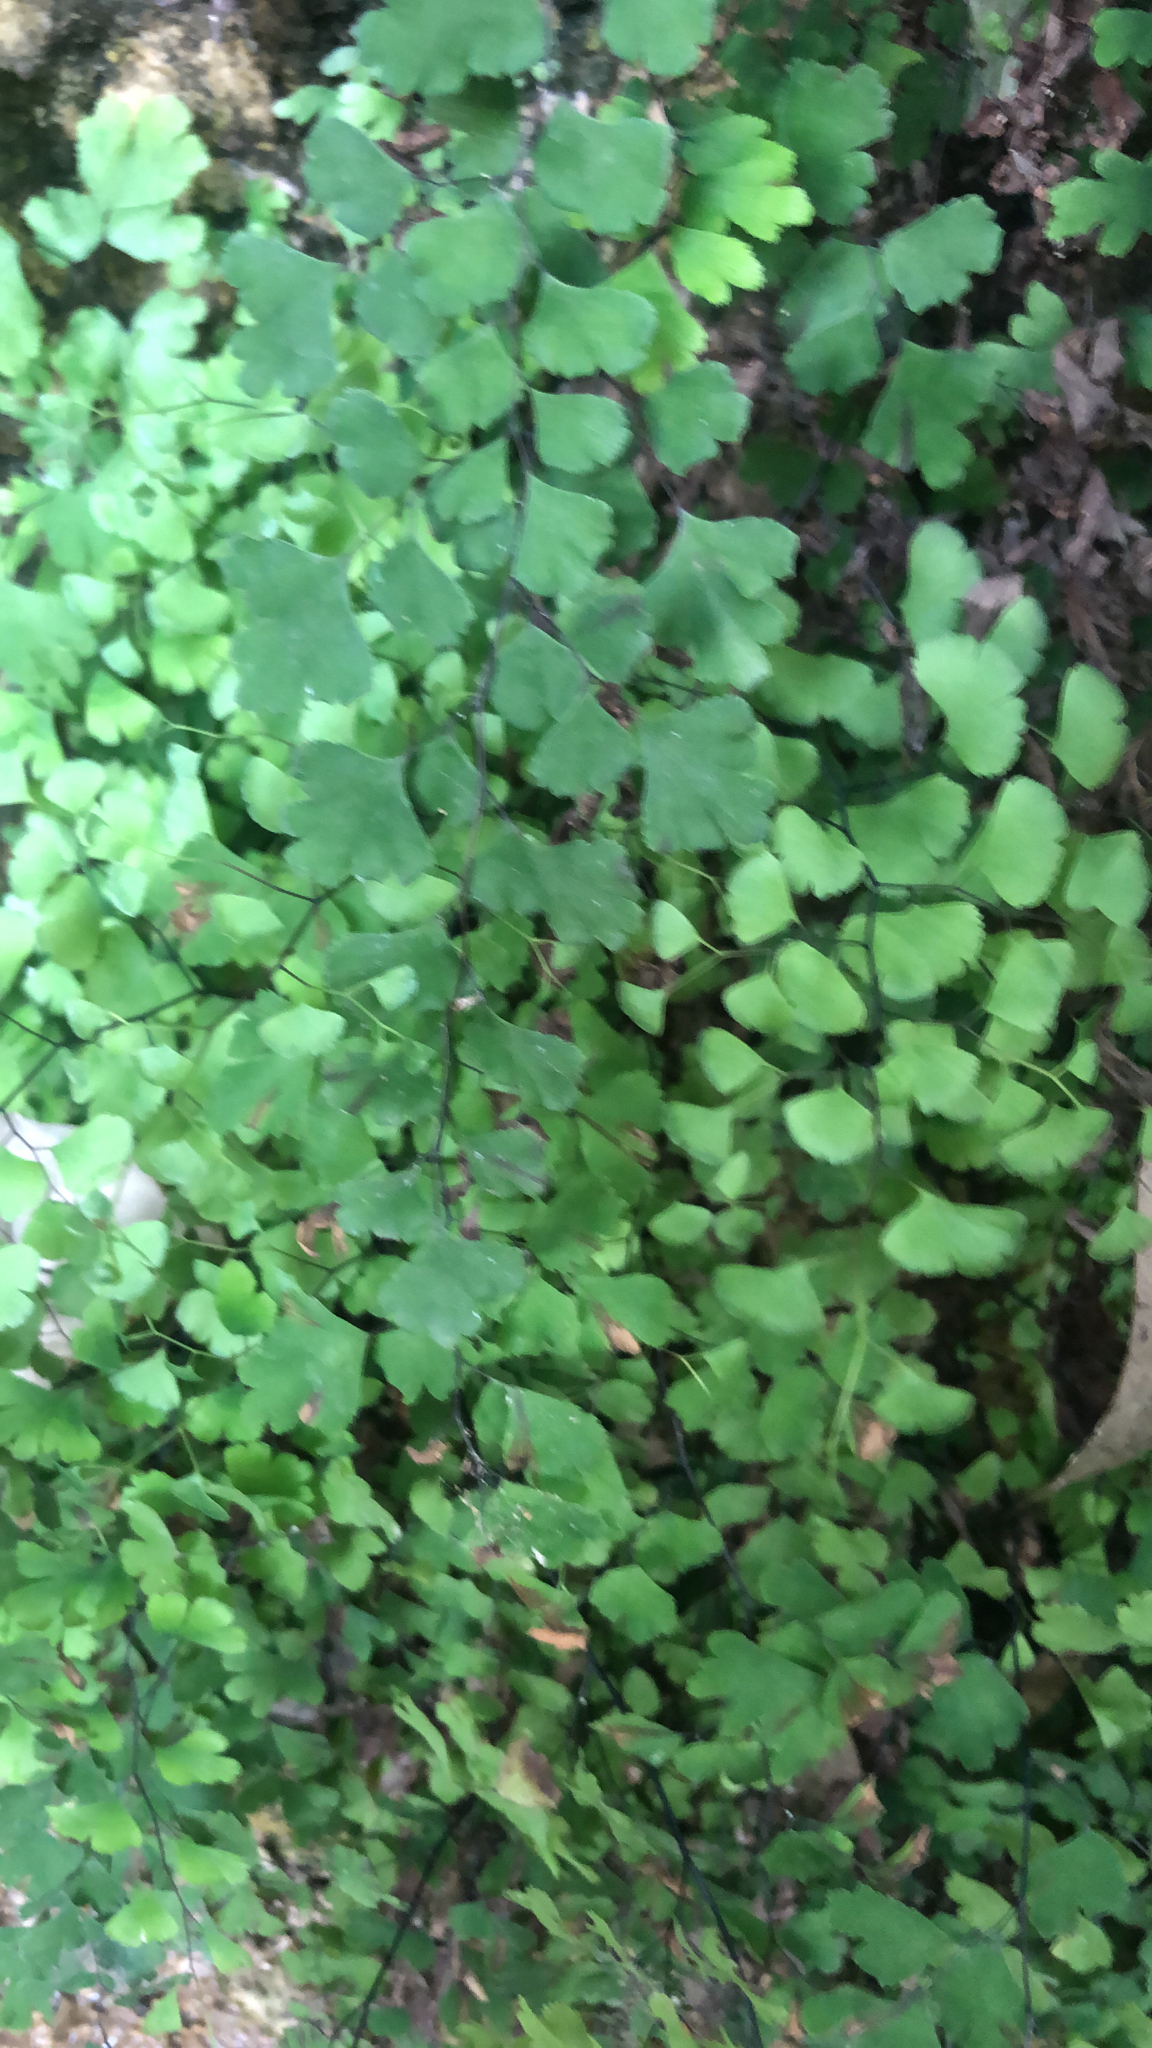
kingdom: Plantae
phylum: Tracheophyta
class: Polypodiopsida
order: Polypodiales
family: Pteridaceae
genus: Adiantum
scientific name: Adiantum capillus-veneris
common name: Maidenhair fern
